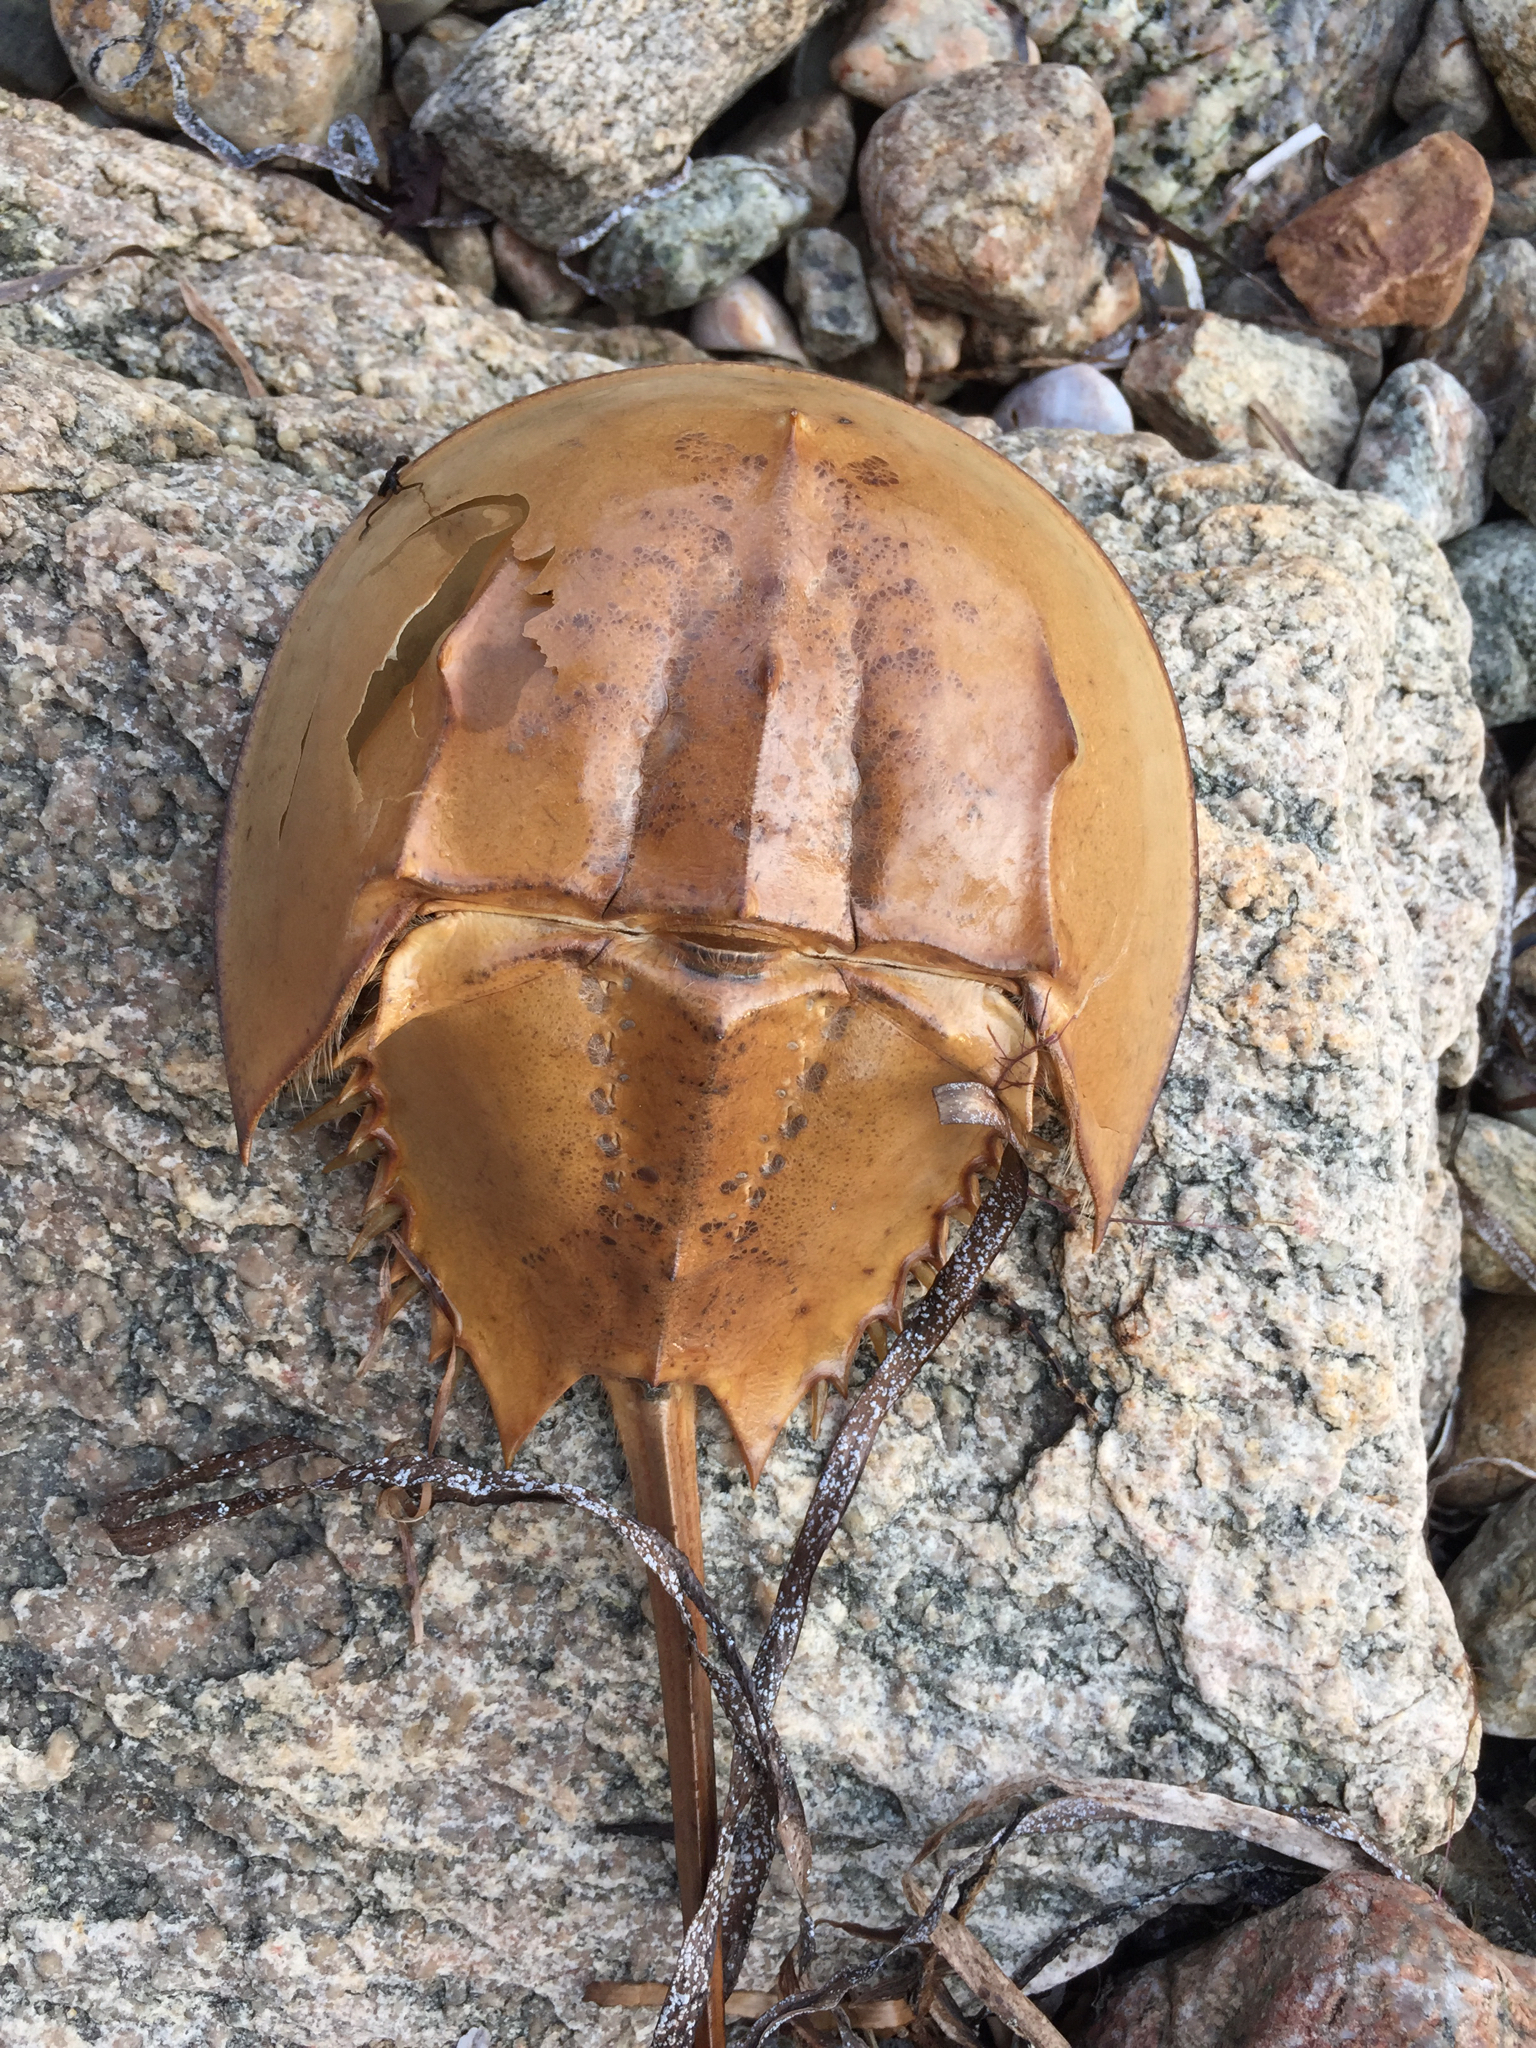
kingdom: Animalia
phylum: Arthropoda
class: Merostomata
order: Xiphosurida
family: Limulidae
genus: Limulus
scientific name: Limulus polyphemus
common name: Horseshoe crab
